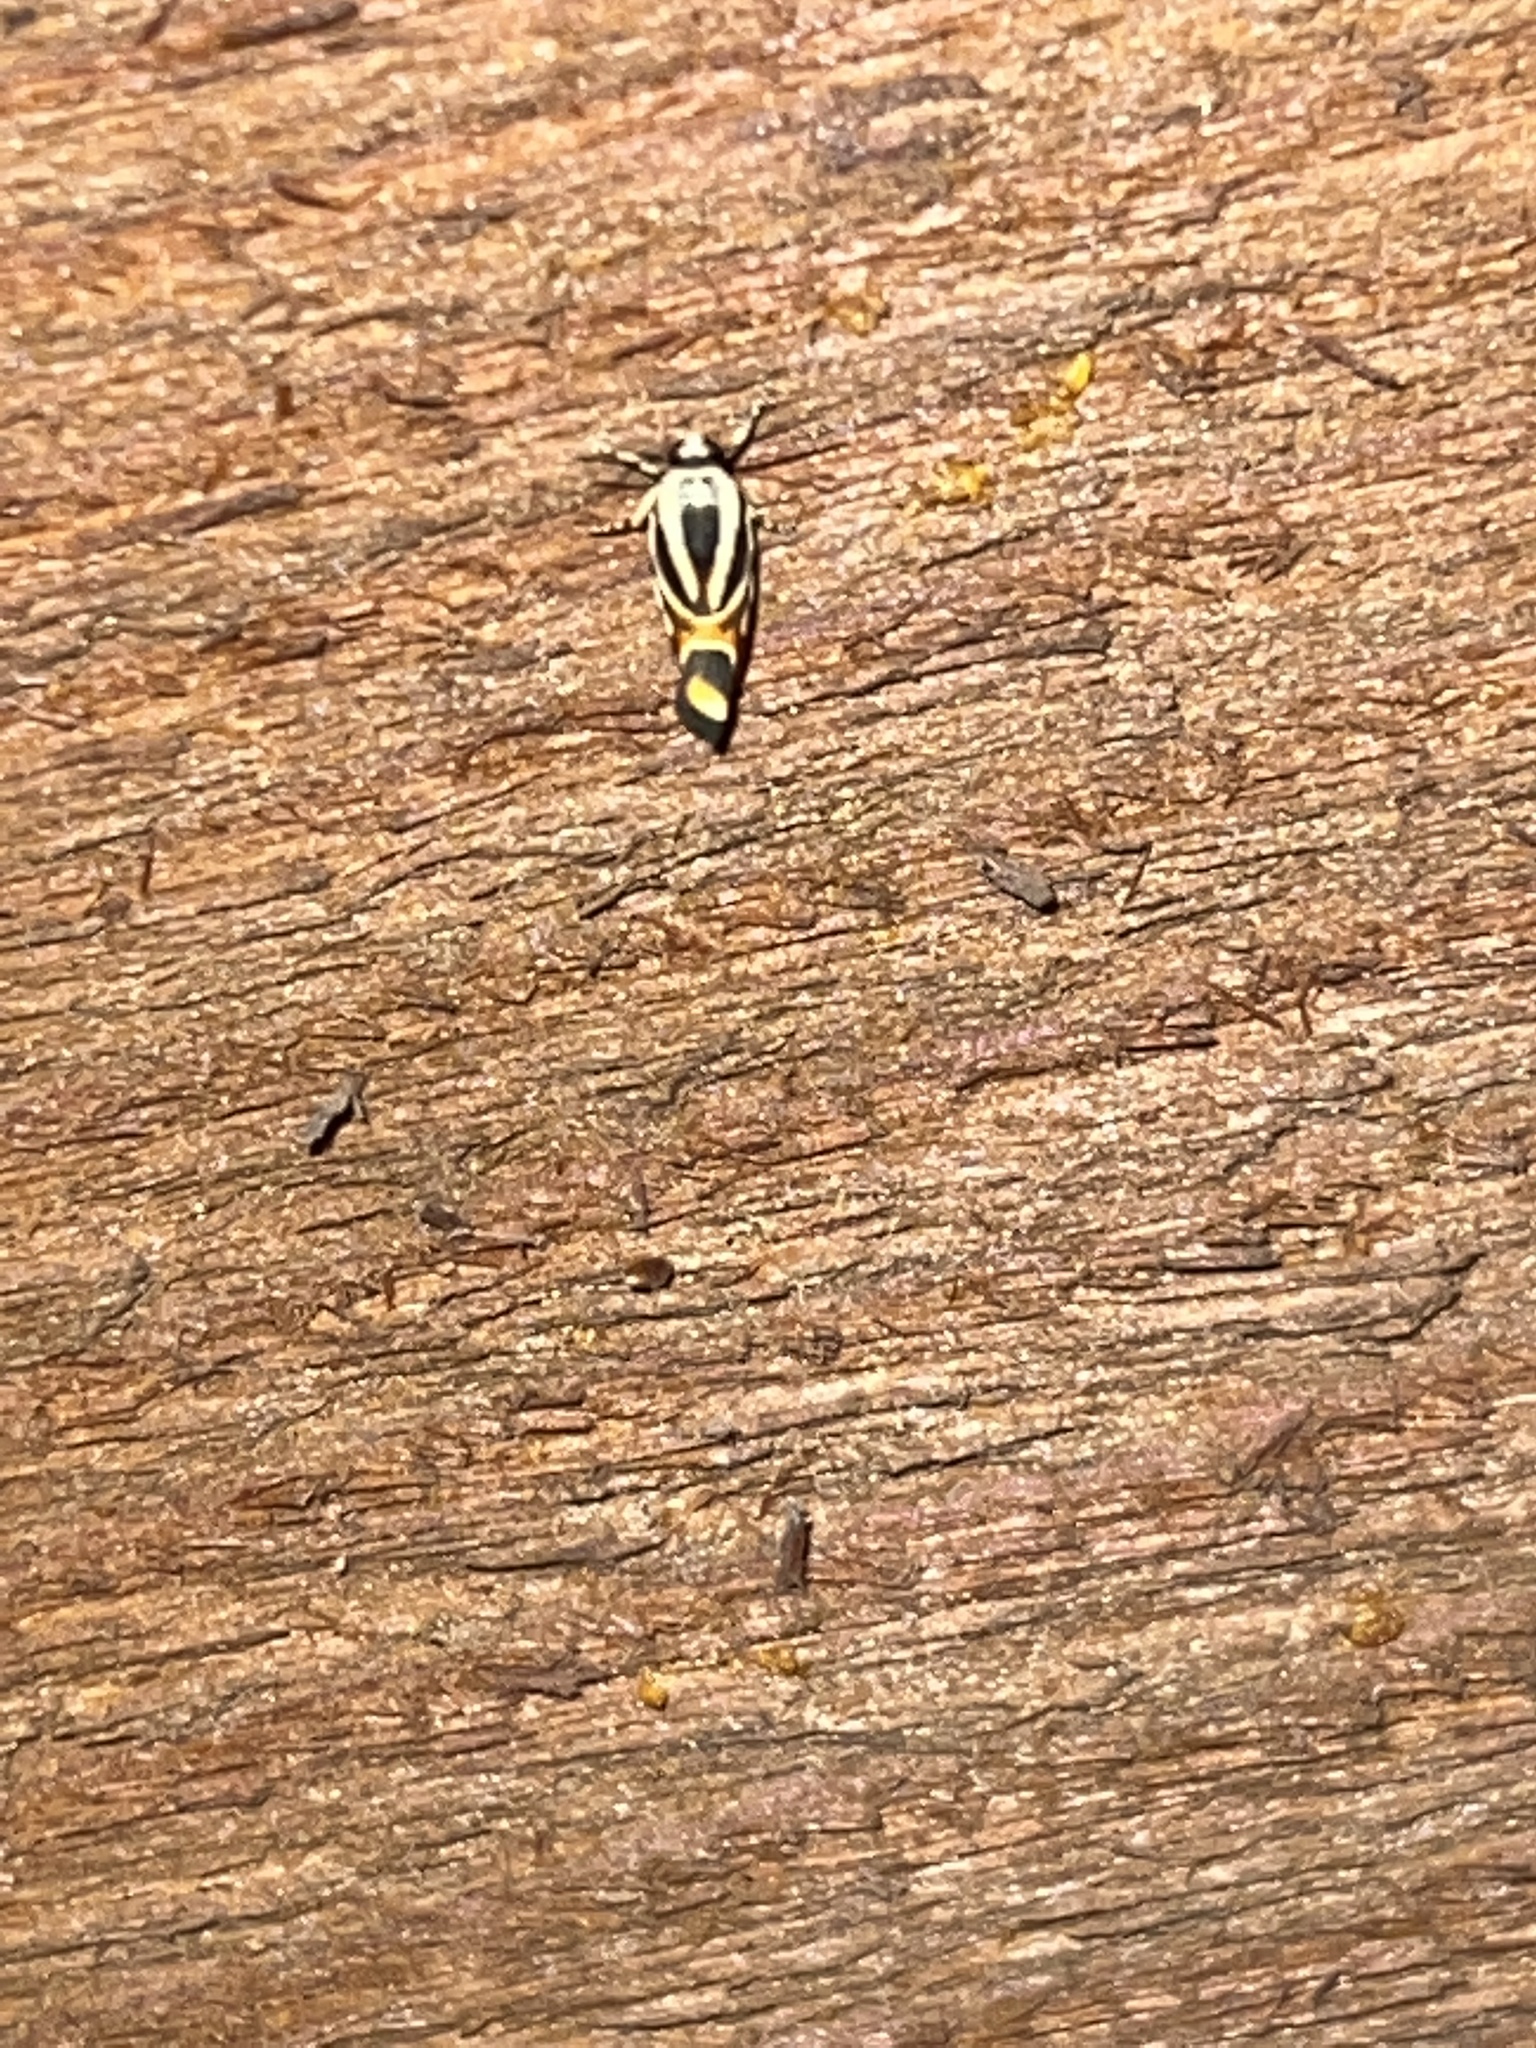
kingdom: Animalia
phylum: Arthropoda
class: Insecta
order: Lepidoptera
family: Noctuidae
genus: Spragueia
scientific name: Spragueia magnifica
